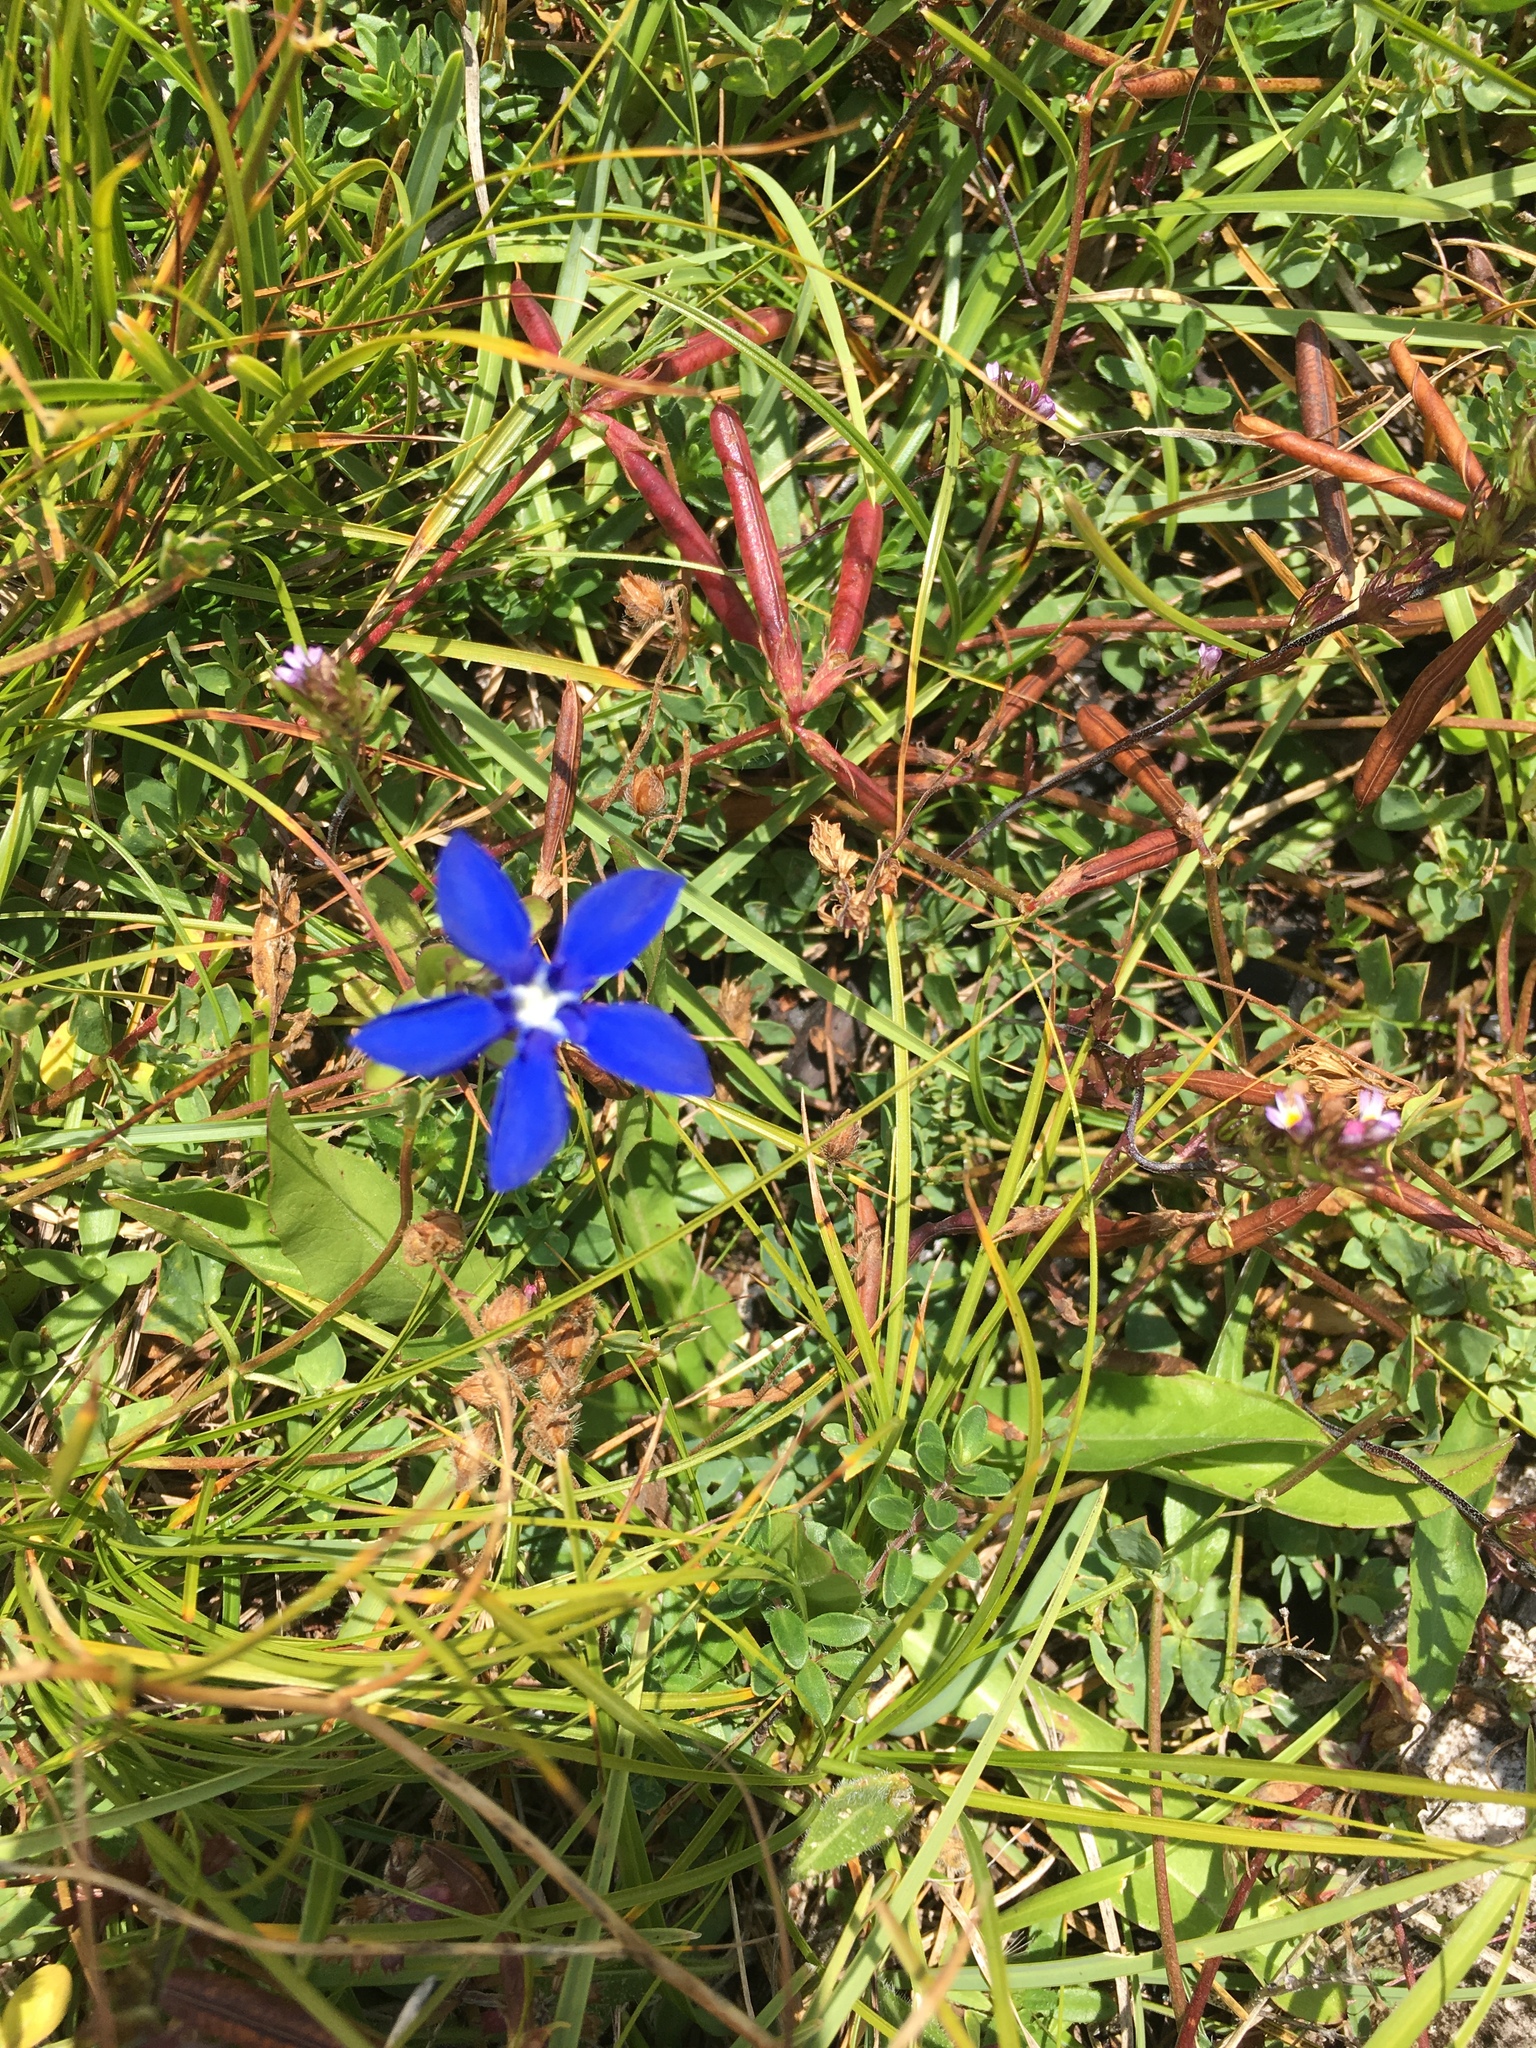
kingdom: Plantae
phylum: Tracheophyta
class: Magnoliopsida
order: Gentianales
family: Gentianaceae
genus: Gentiana
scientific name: Gentiana verna
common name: Spring gentian
